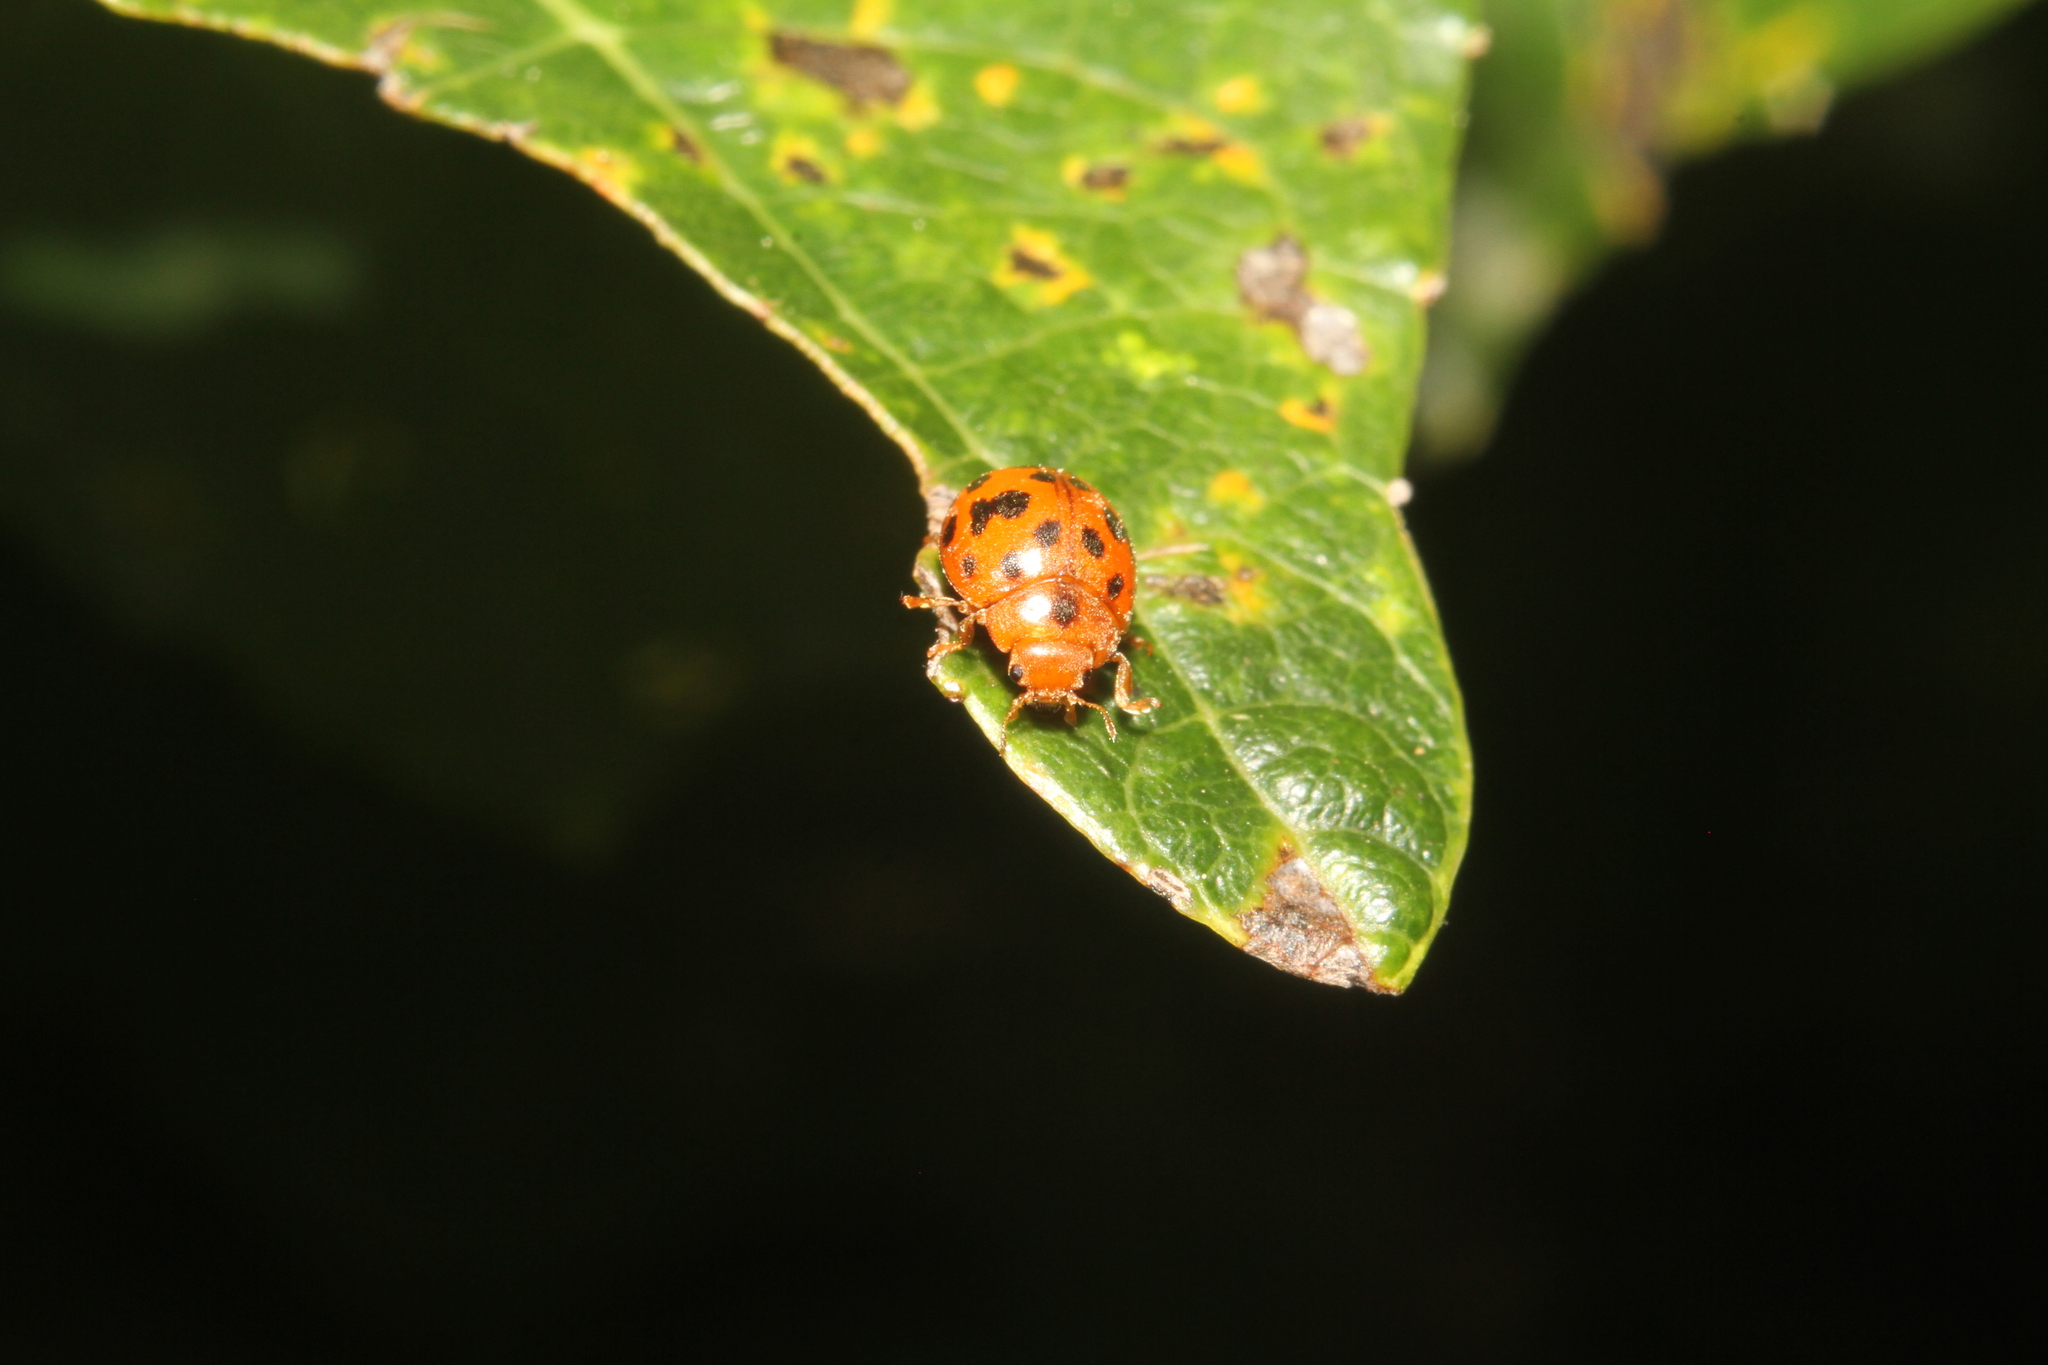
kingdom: Animalia
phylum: Arthropoda
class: Insecta
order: Coleoptera
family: Coccinellidae
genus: Subcoccinella
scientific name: Subcoccinella vigintiquatuorpunctata
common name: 24-spot ladybird
